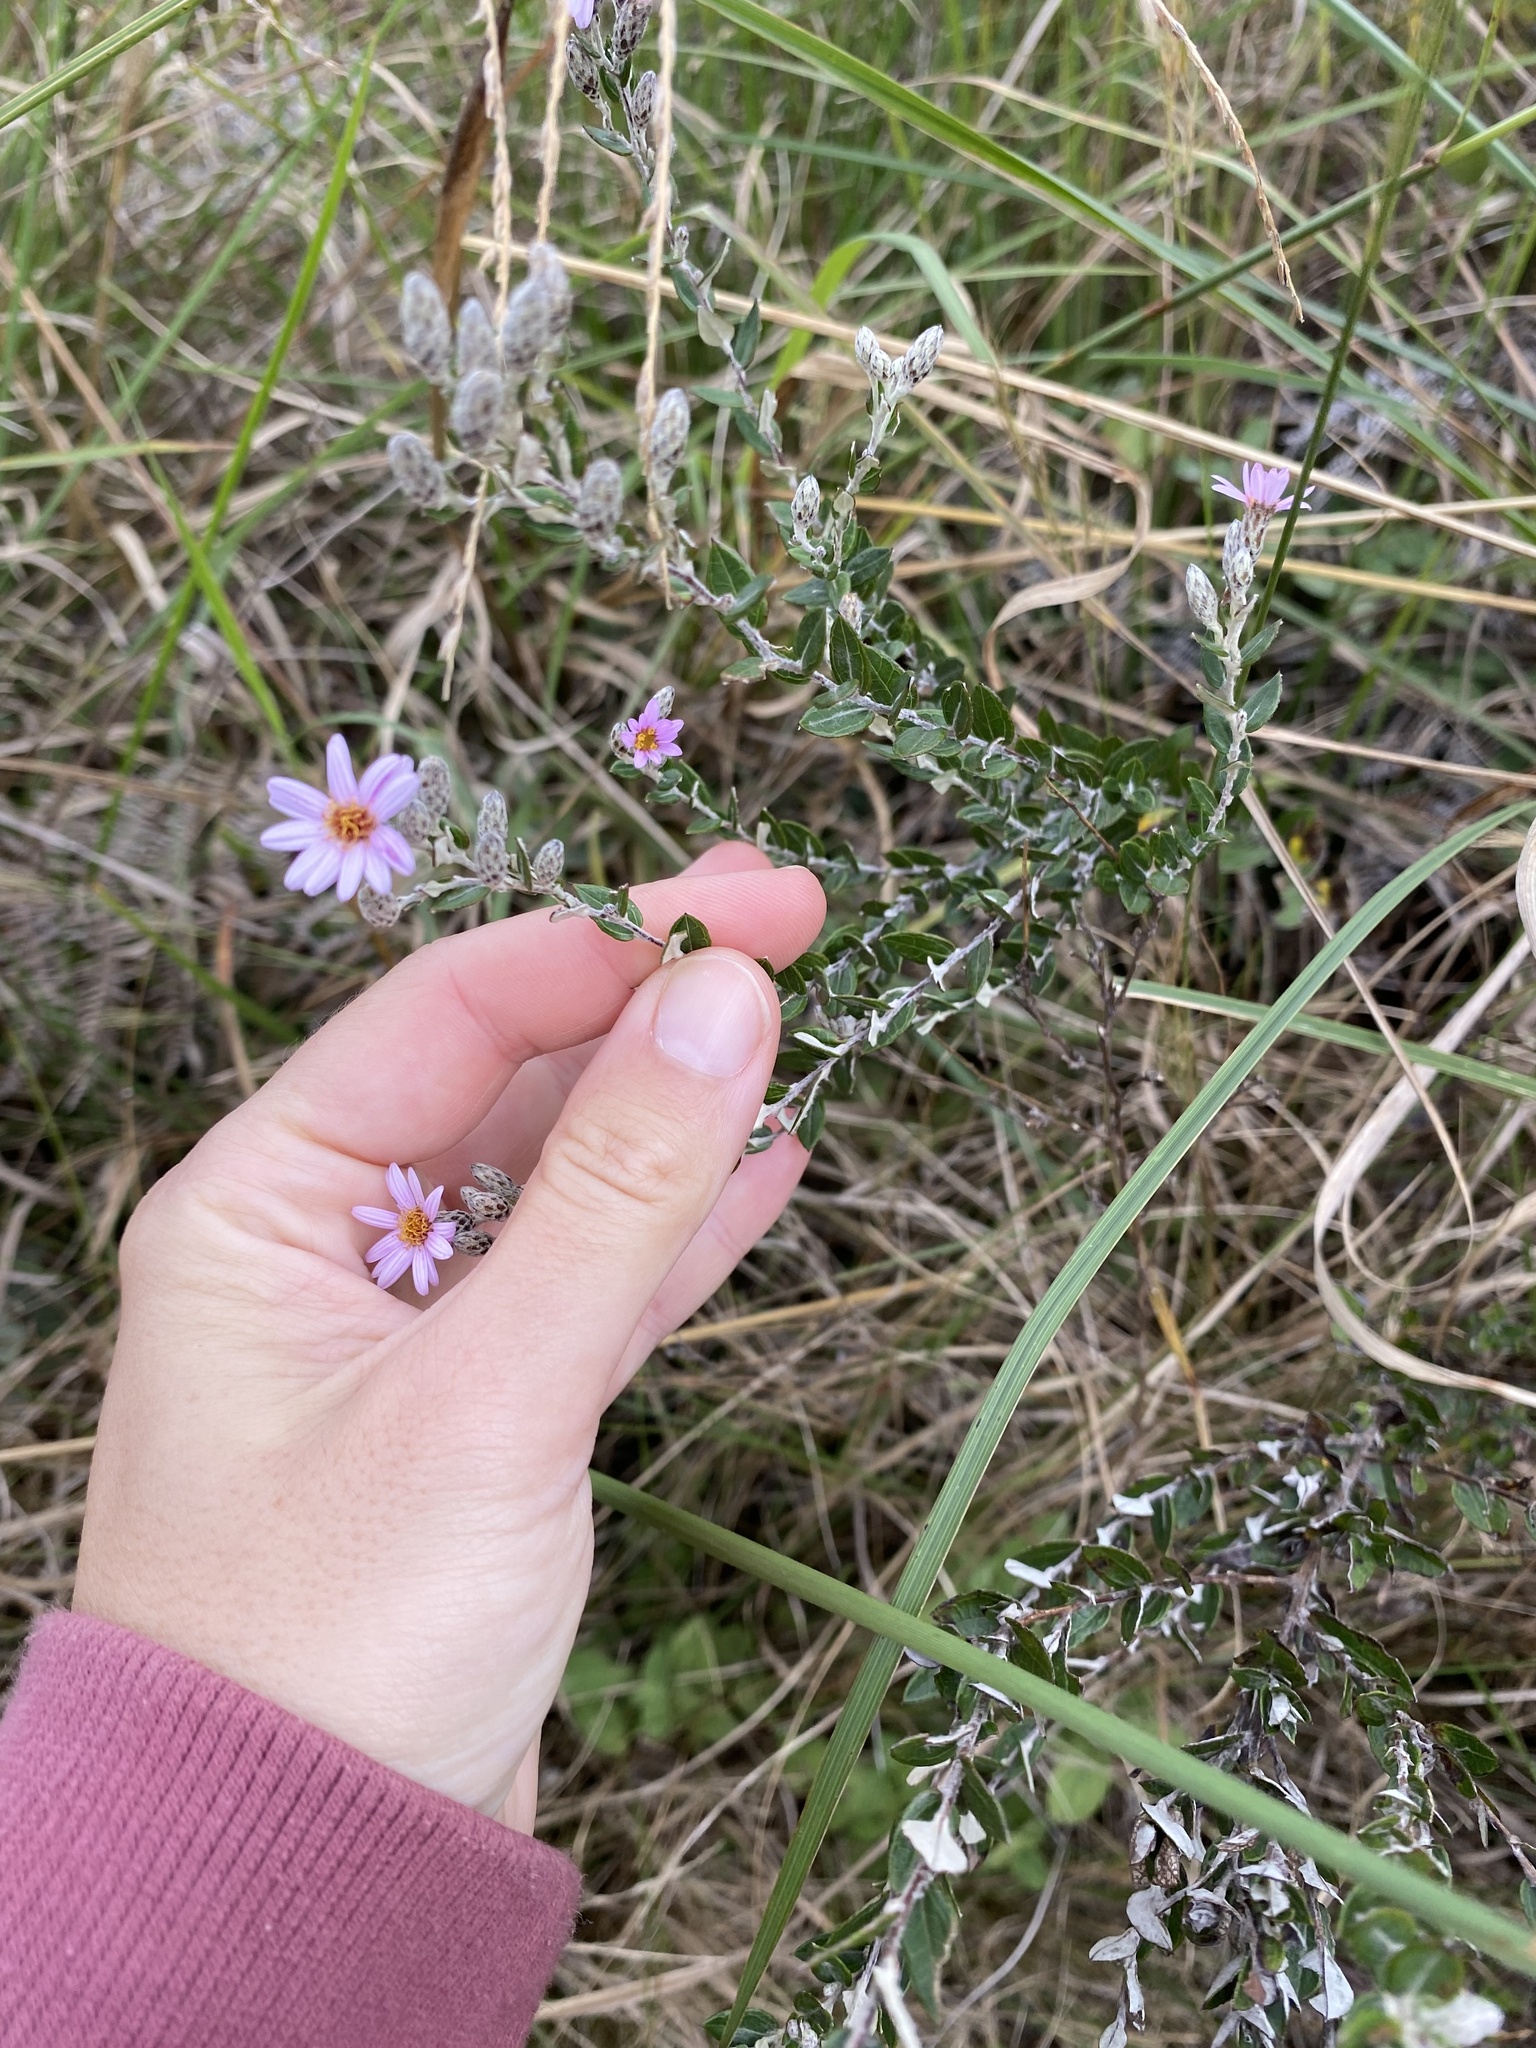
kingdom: Plantae
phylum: Tracheophyta
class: Magnoliopsida
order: Asterales
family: Asteraceae
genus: Athrixia
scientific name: Athrixia phylicoides
